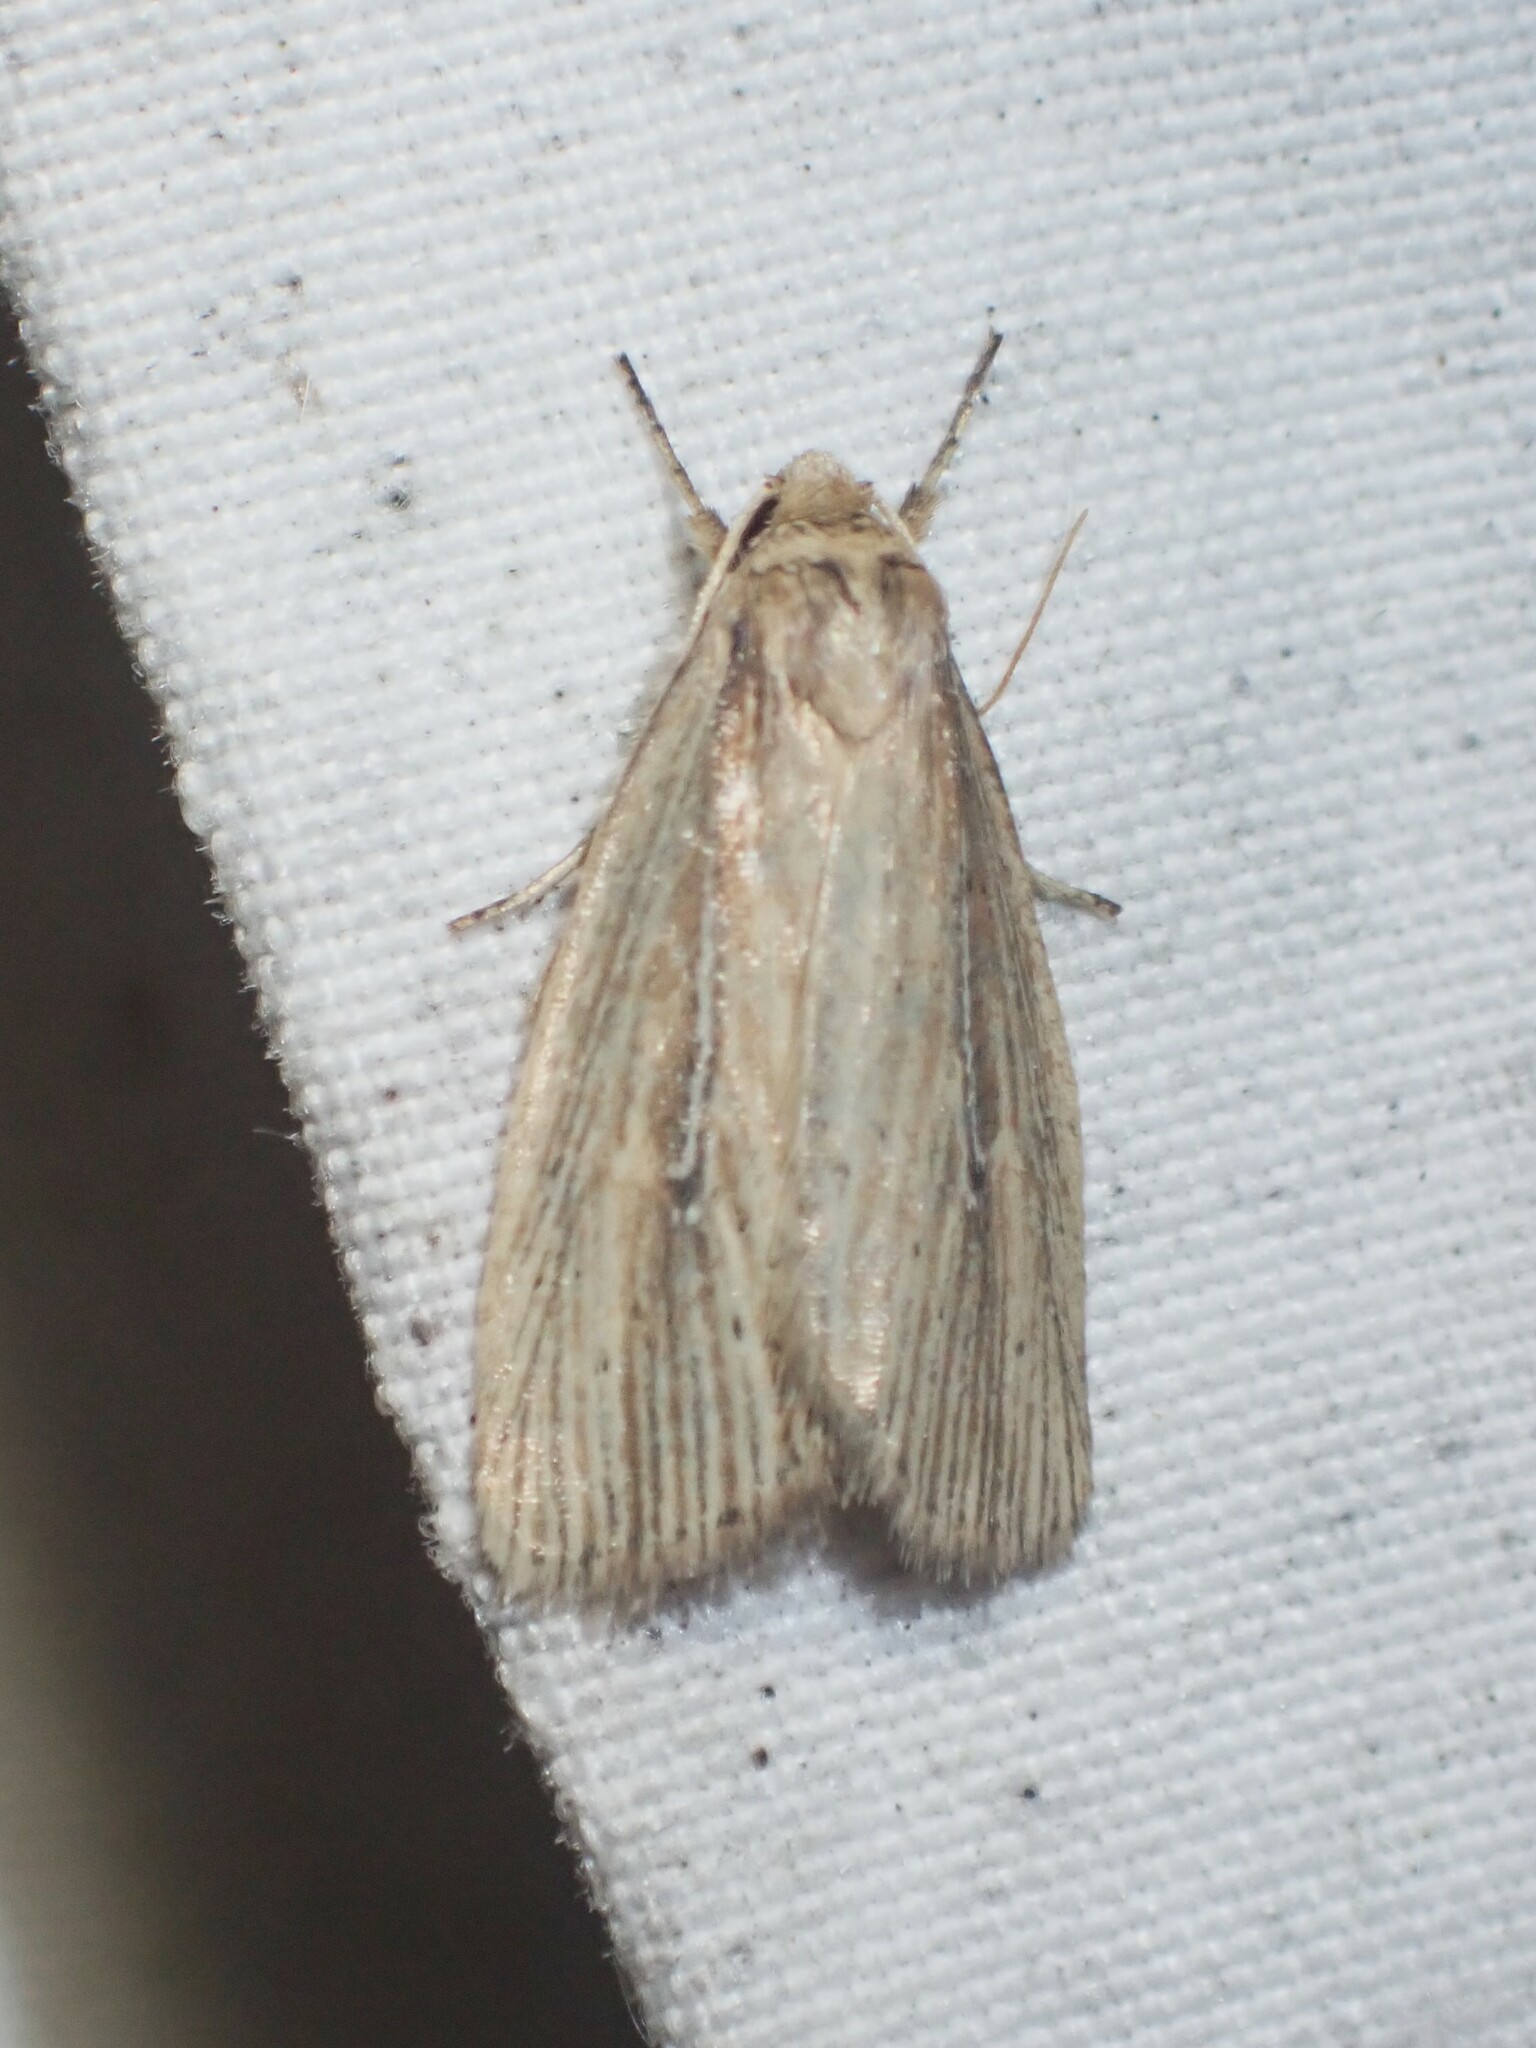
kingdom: Animalia
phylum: Arthropoda
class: Insecta
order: Lepidoptera
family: Noctuidae
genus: Photedes
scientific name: Photedes defecta
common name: Narrow-winged borer moth
